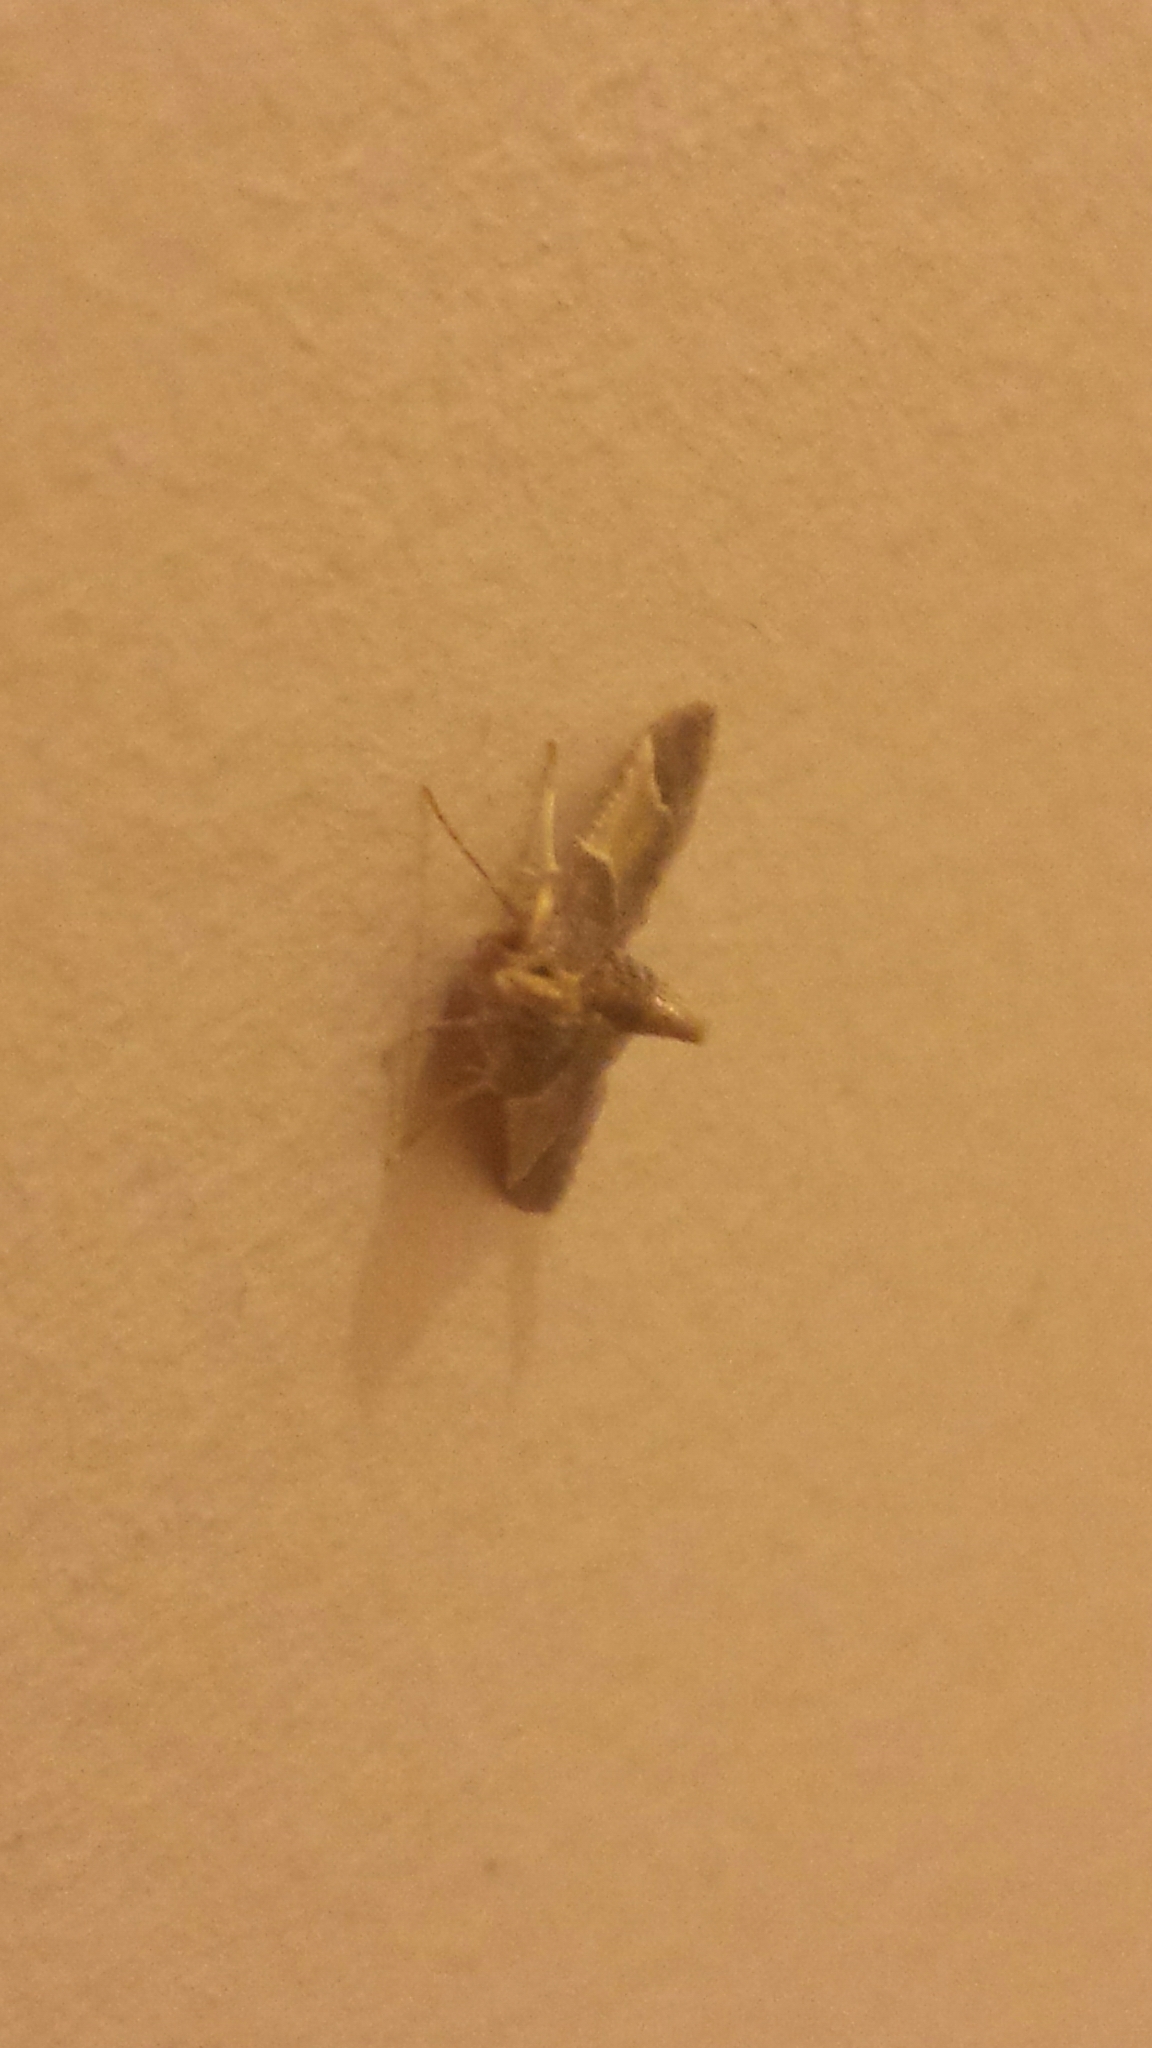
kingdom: Animalia
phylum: Arthropoda
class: Insecta
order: Lepidoptera
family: Pyralidae
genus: Pyralis
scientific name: Pyralis farinalis
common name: Meal moth
